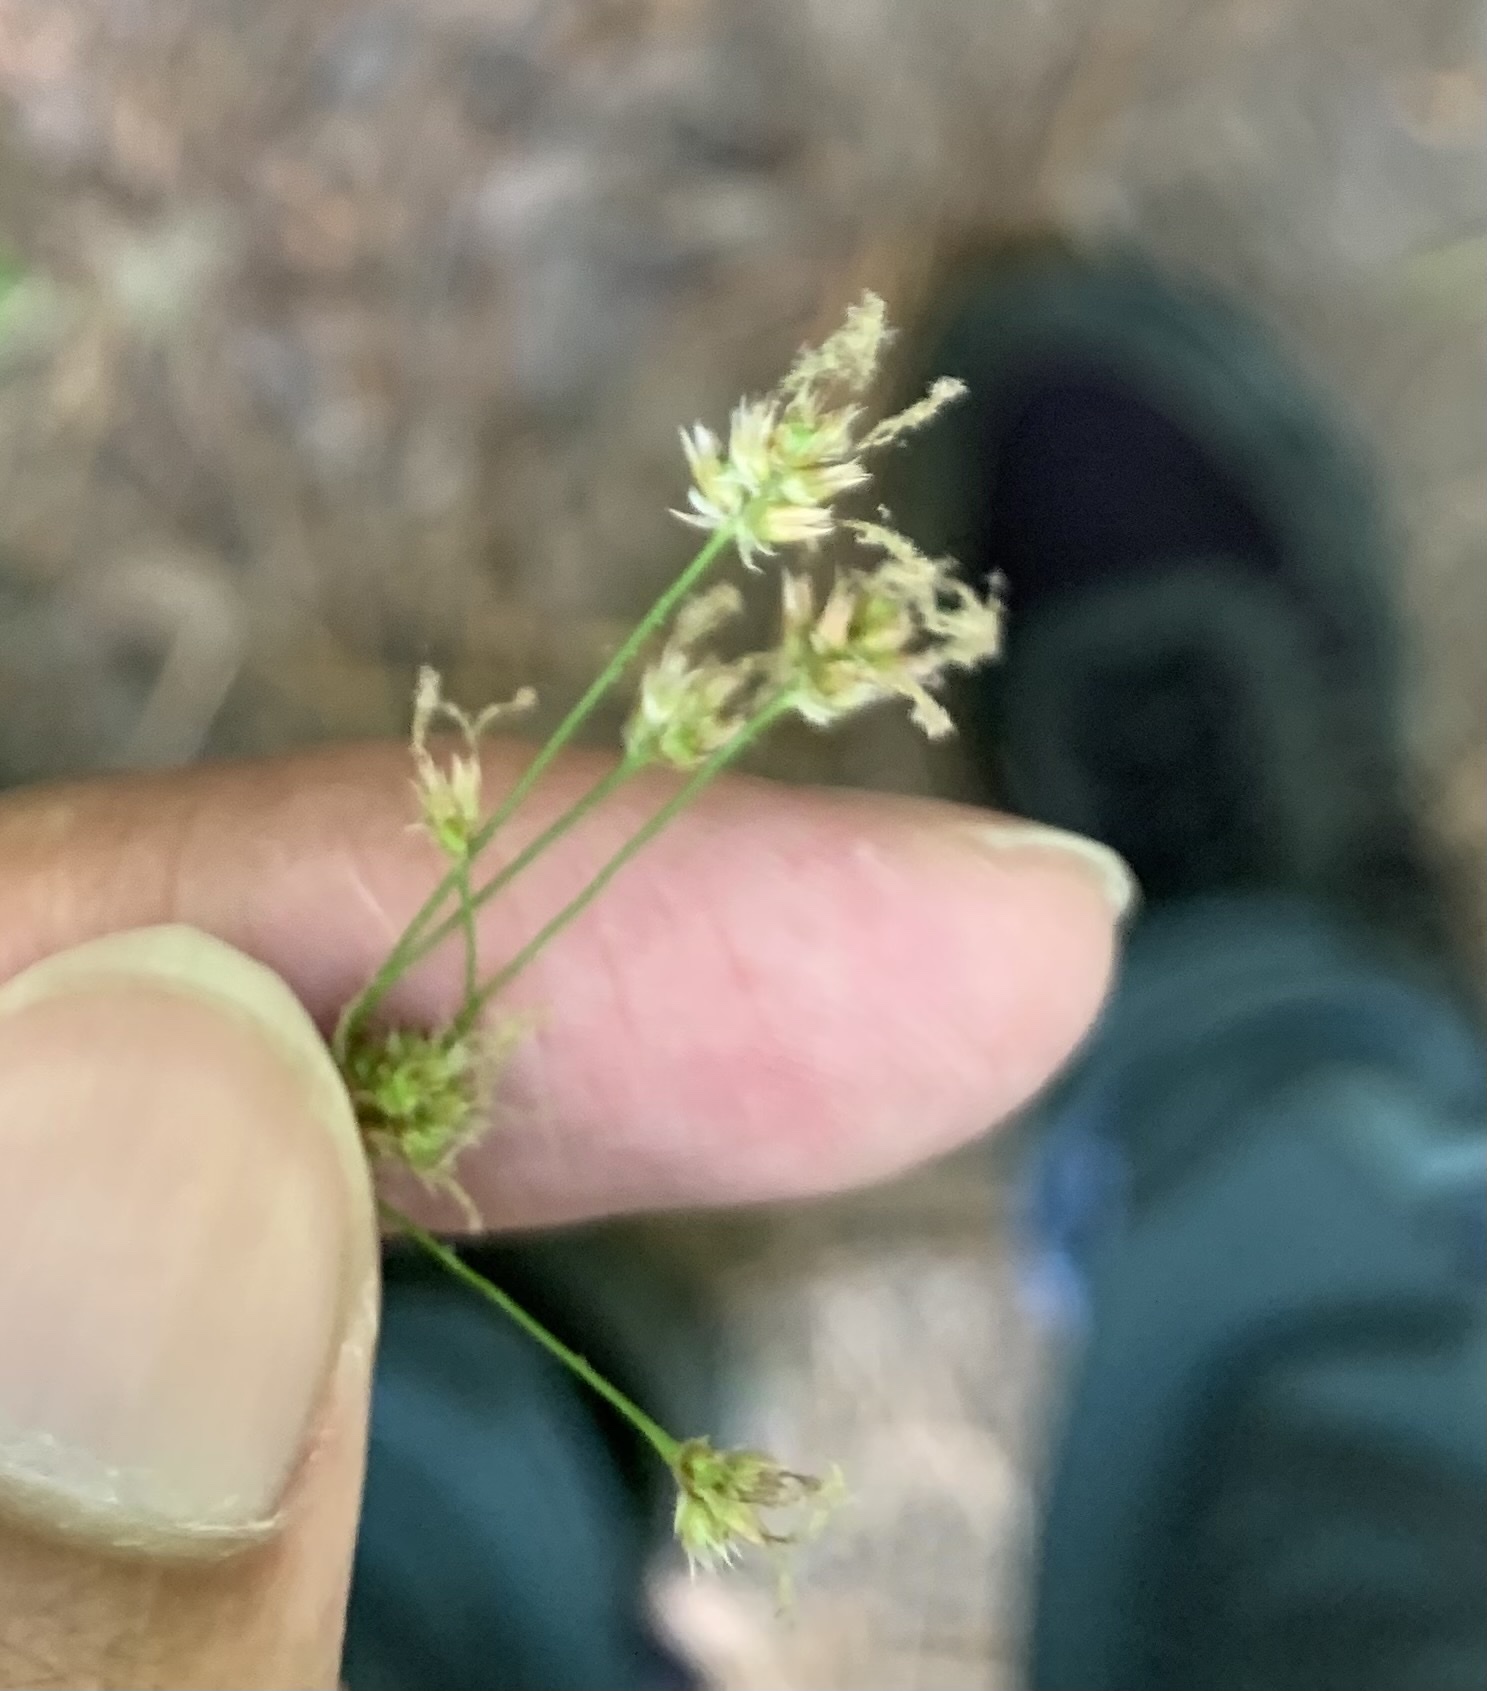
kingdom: Plantae
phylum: Tracheophyta
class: Liliopsida
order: Poales
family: Juncaceae
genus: Luzula
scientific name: Luzula echinata
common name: Hedgehog woodrush
